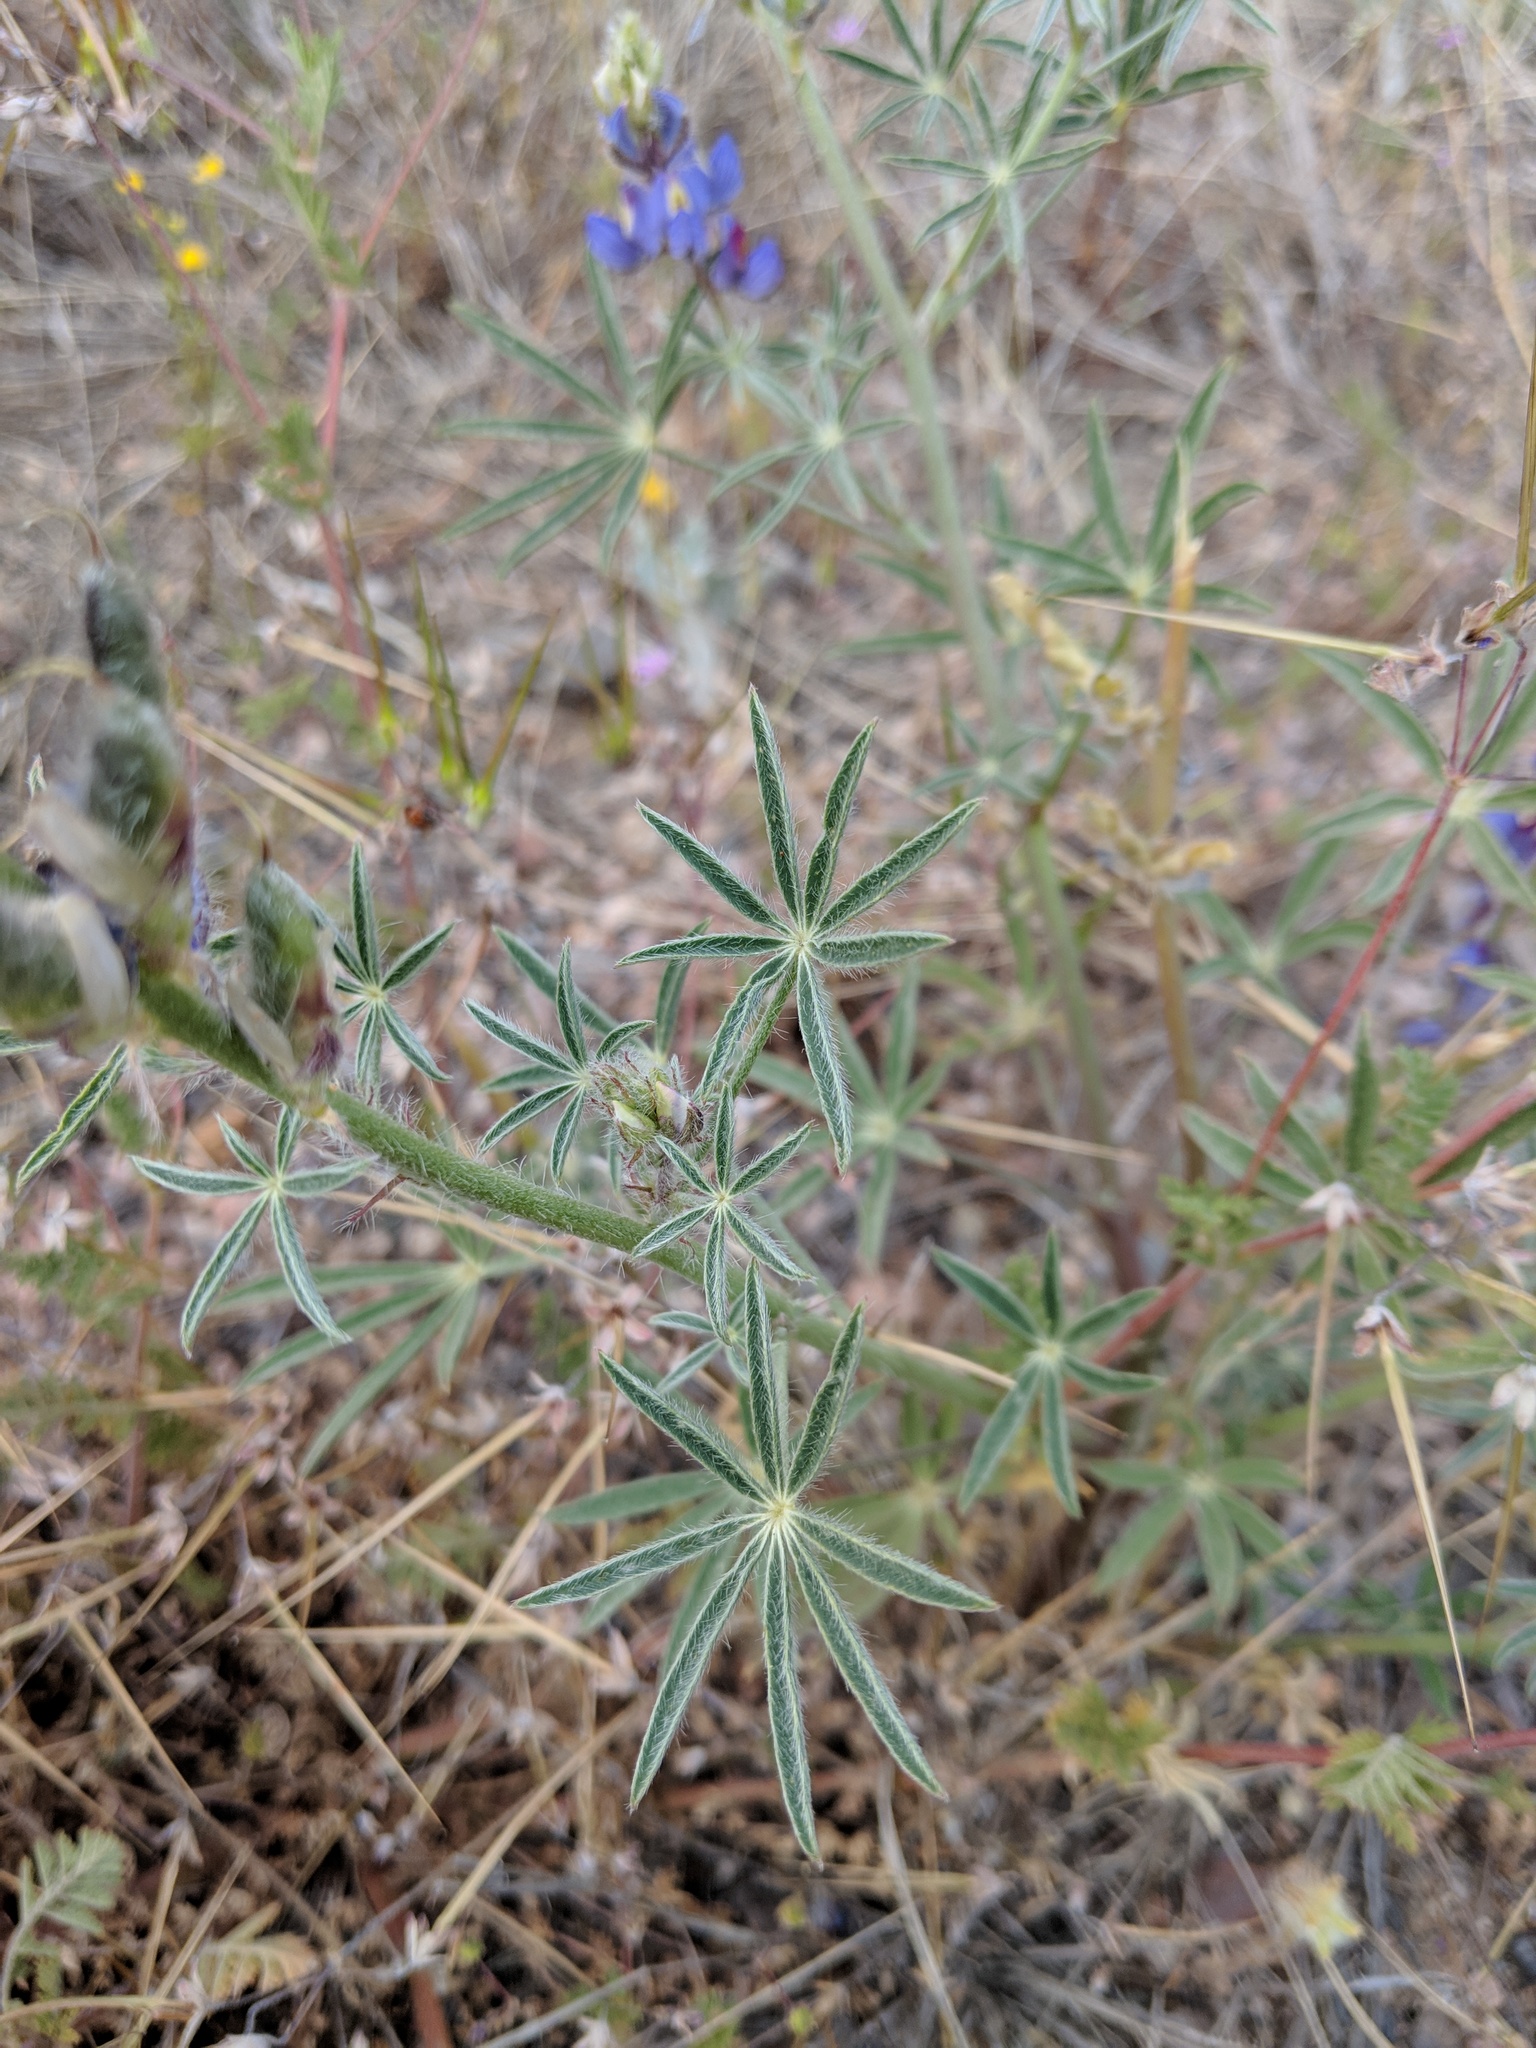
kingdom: Plantae
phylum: Tracheophyta
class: Magnoliopsida
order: Fabales
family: Fabaceae
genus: Lupinus
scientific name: Lupinus sparsiflorus
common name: Coulter's lupine
